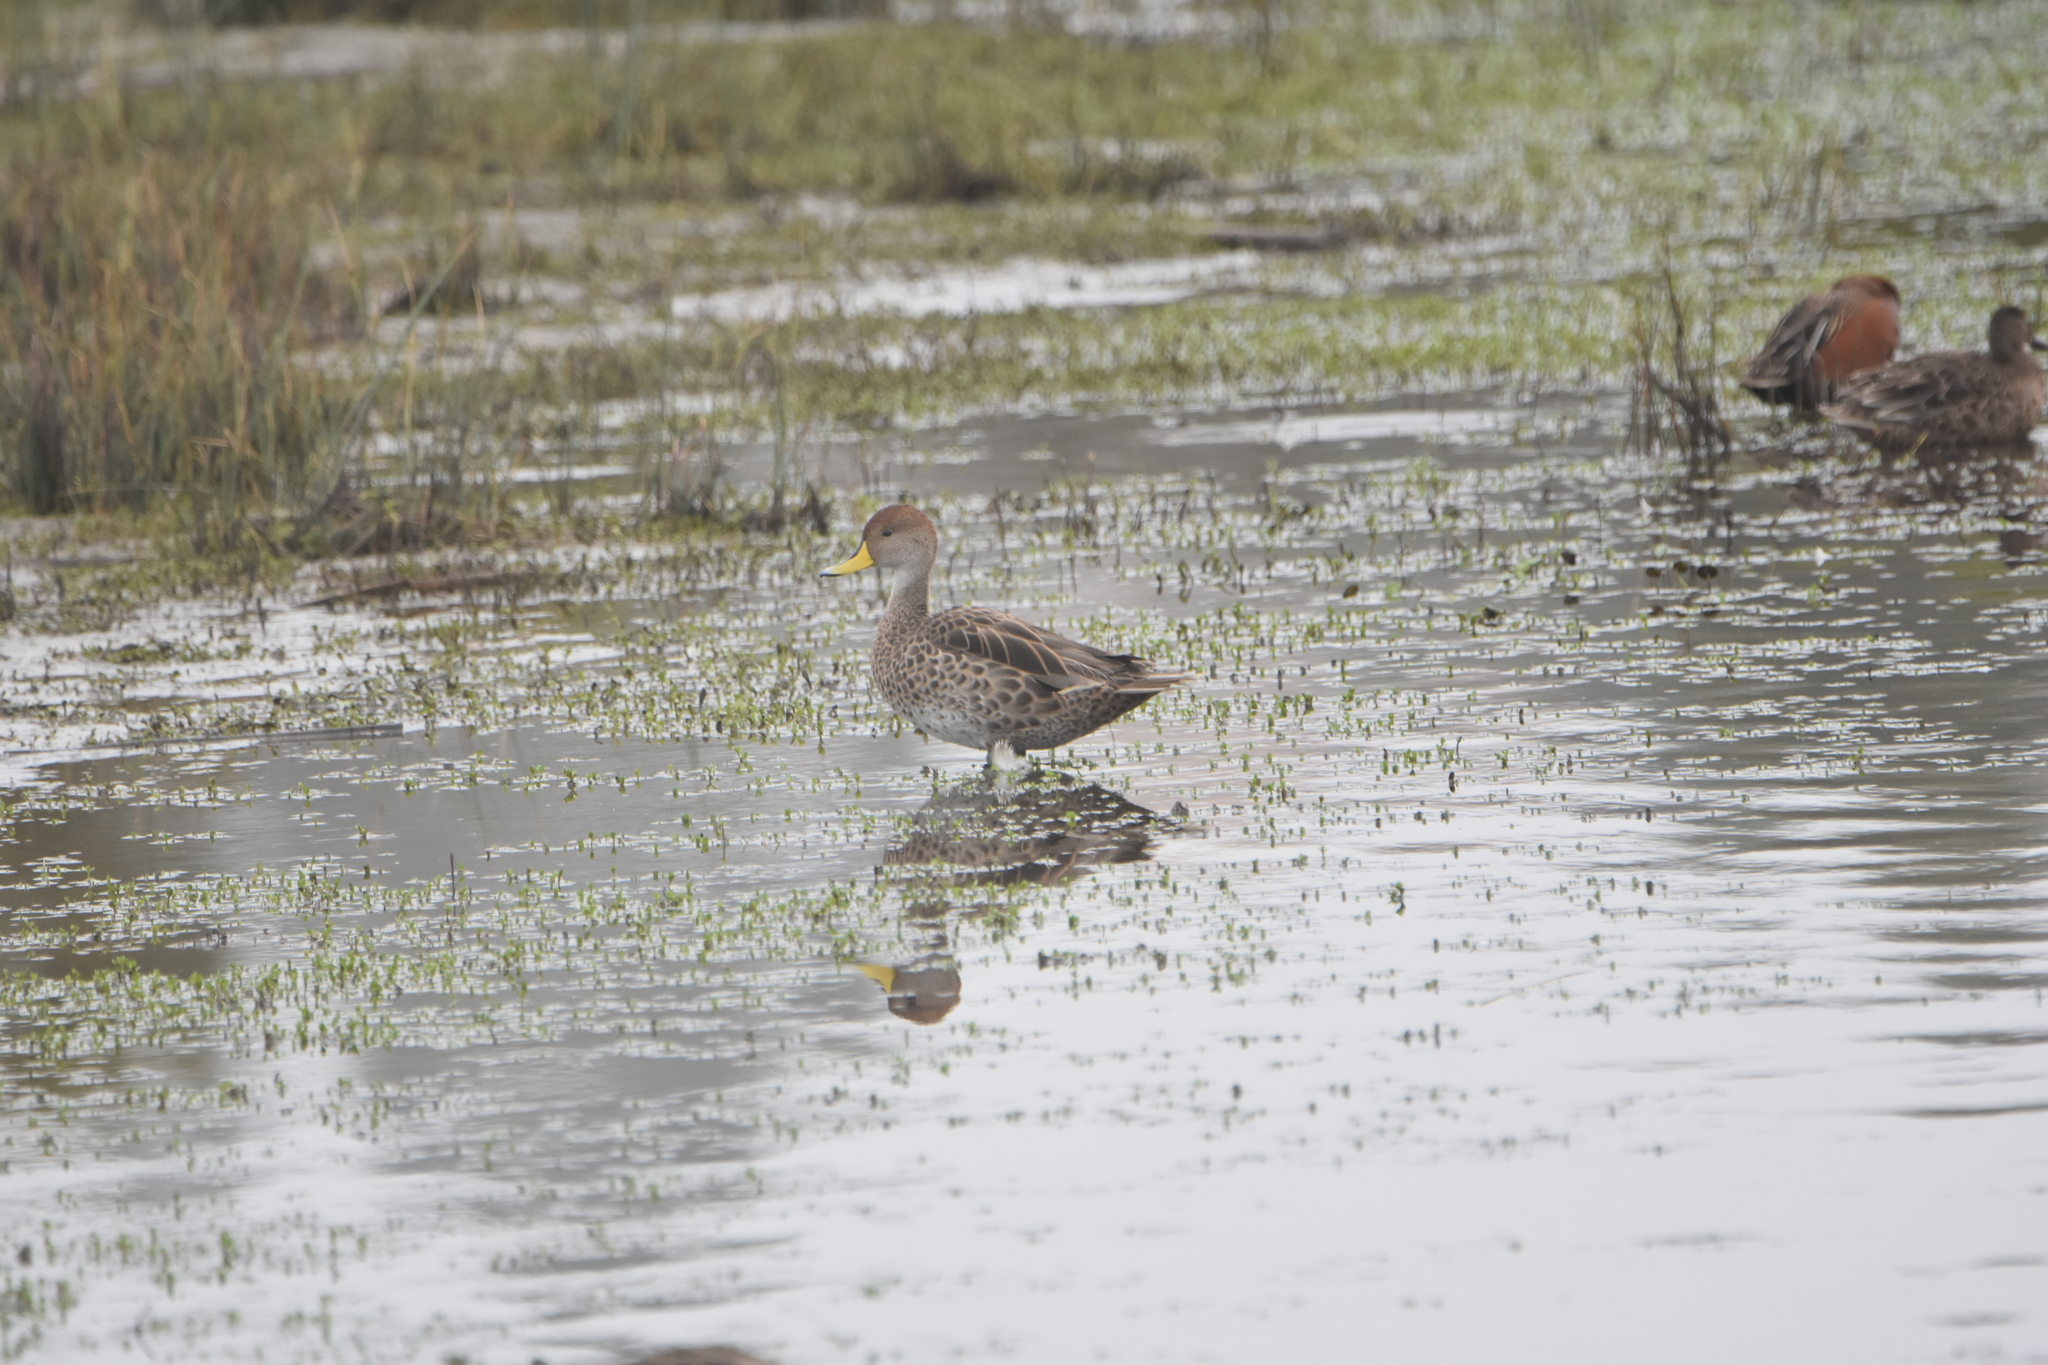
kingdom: Animalia
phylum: Chordata
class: Aves
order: Anseriformes
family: Anatidae
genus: Anas
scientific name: Anas georgica
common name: Yellow-billed pintail
